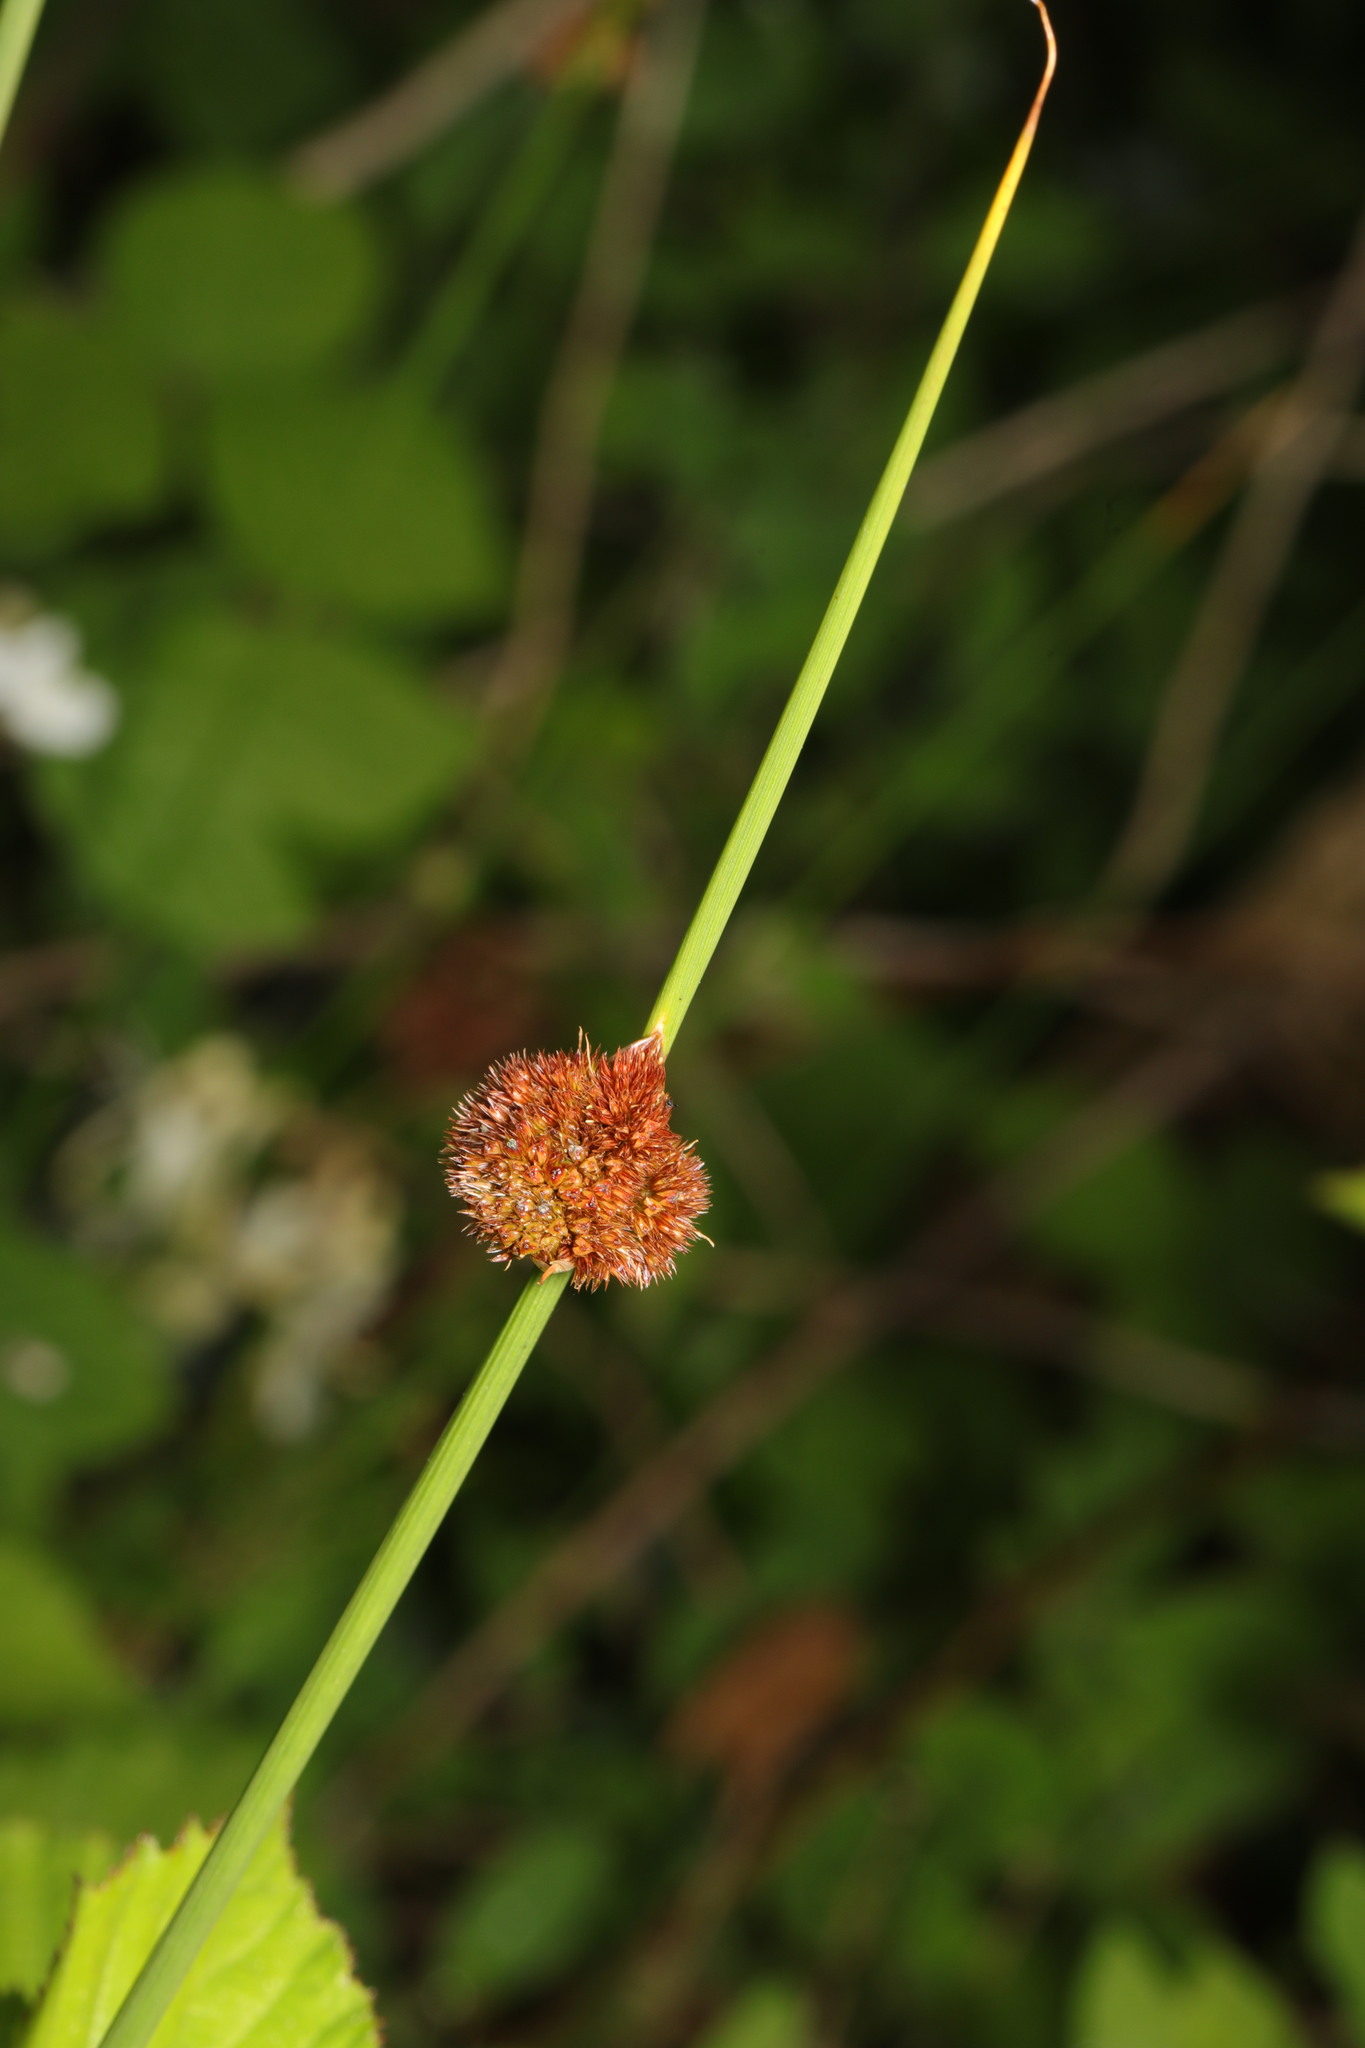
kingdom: Plantae
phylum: Tracheophyta
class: Liliopsida
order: Poales
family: Juncaceae
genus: Juncus
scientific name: Juncus conglomeratus
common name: Compact rush
